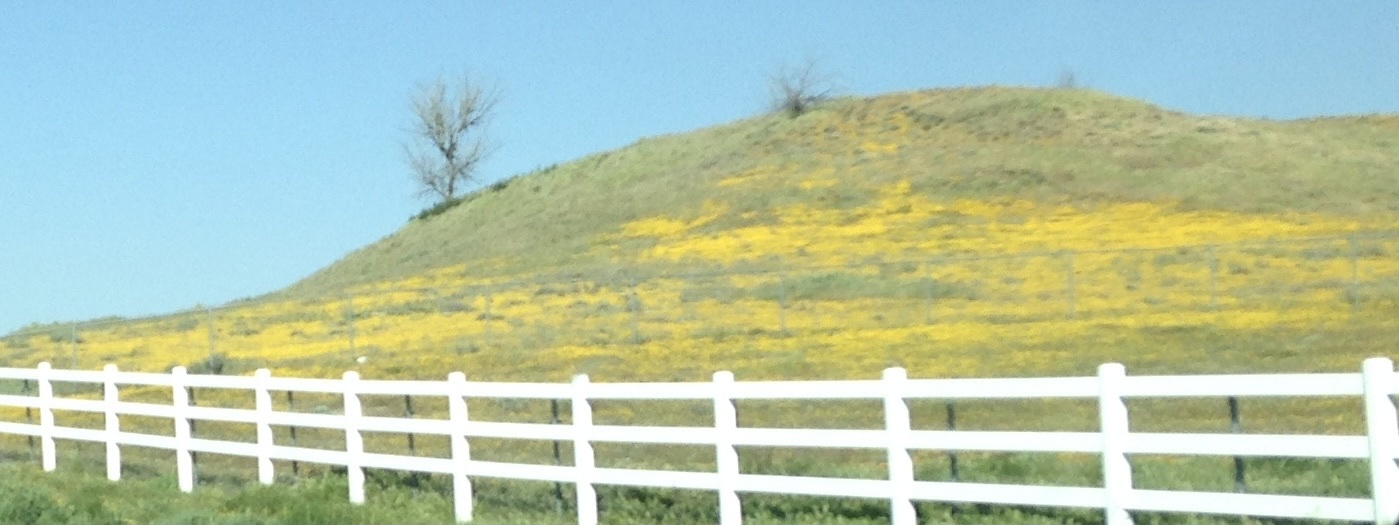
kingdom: Plantae
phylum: Tracheophyta
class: Magnoliopsida
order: Asterales
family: Asteraceae
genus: Lasthenia
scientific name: Lasthenia gracilis
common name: Common goldfields
